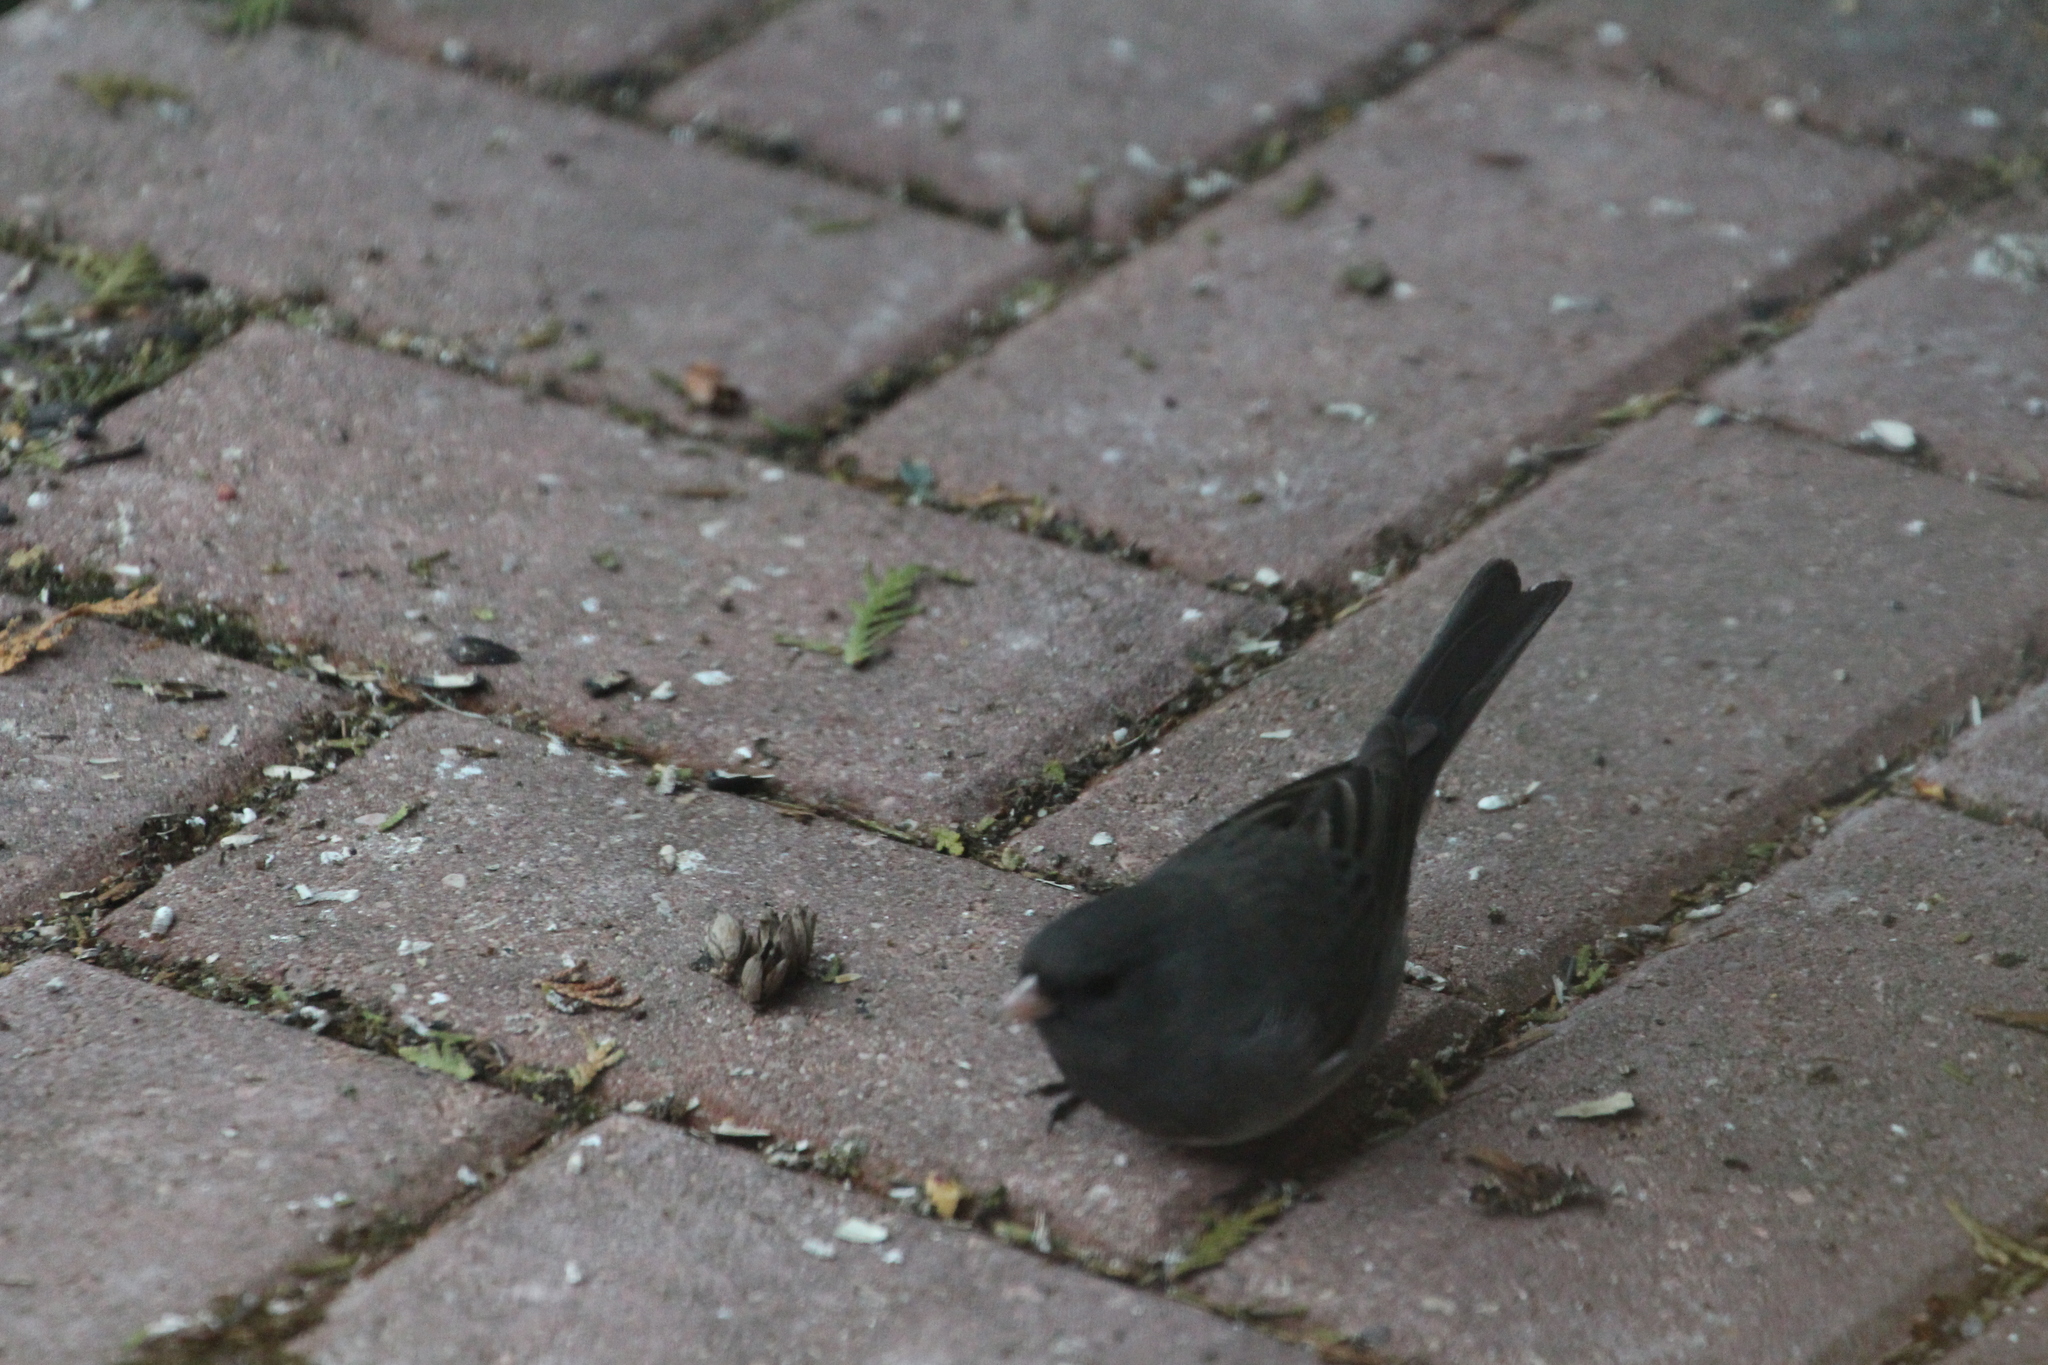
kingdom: Animalia
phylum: Chordata
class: Aves
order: Passeriformes
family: Passerellidae
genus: Junco
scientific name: Junco hyemalis
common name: Dark-eyed junco
